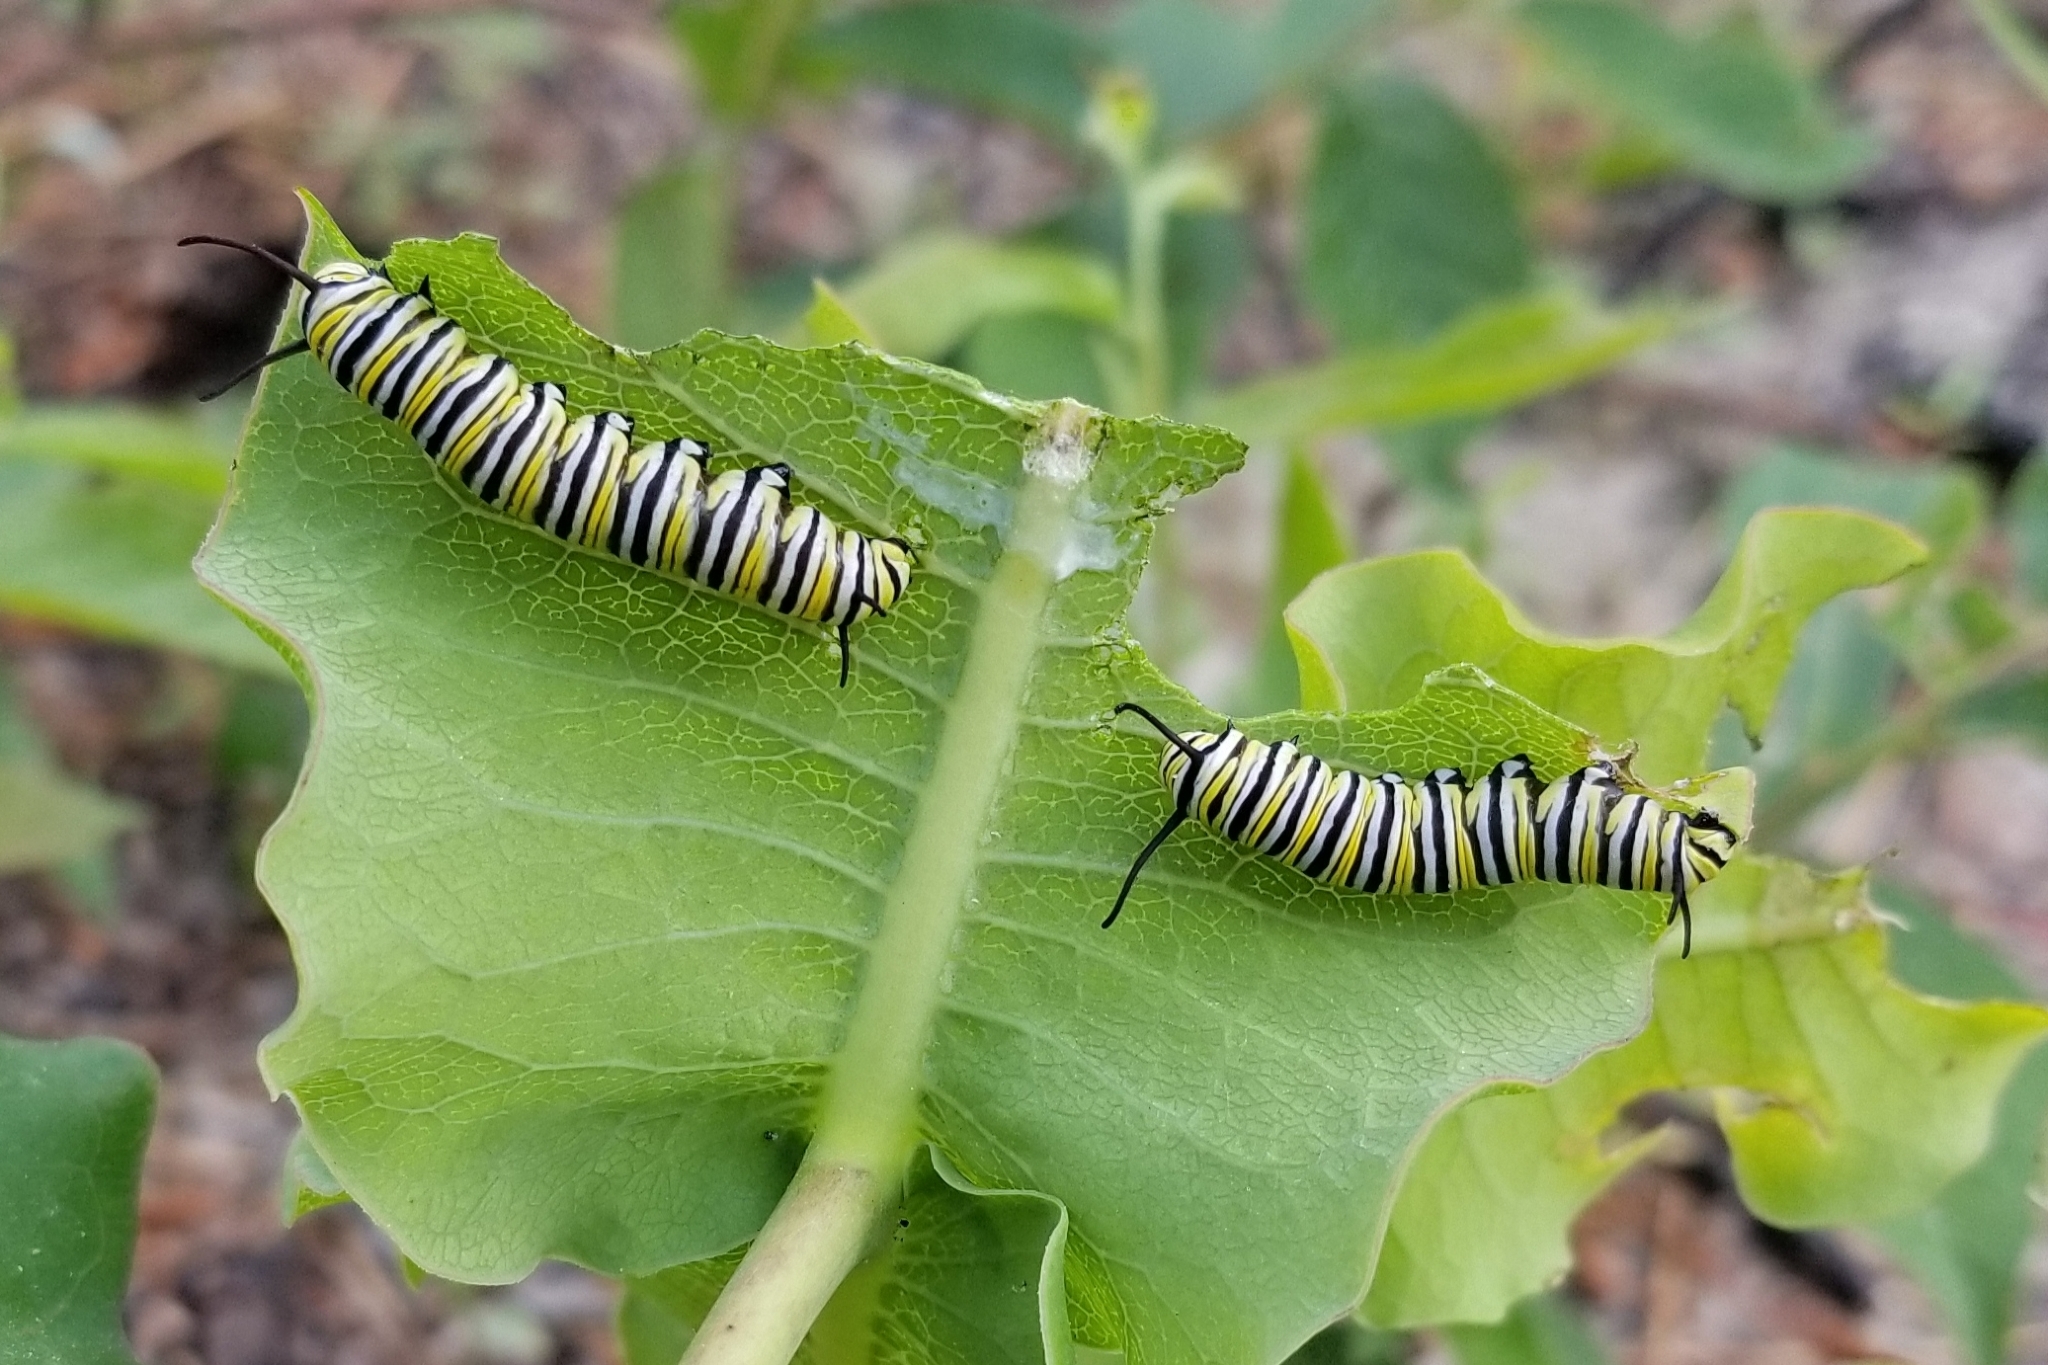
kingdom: Animalia
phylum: Arthropoda
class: Insecta
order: Lepidoptera
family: Nymphalidae
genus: Danaus
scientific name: Danaus plexippus
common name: Monarch
